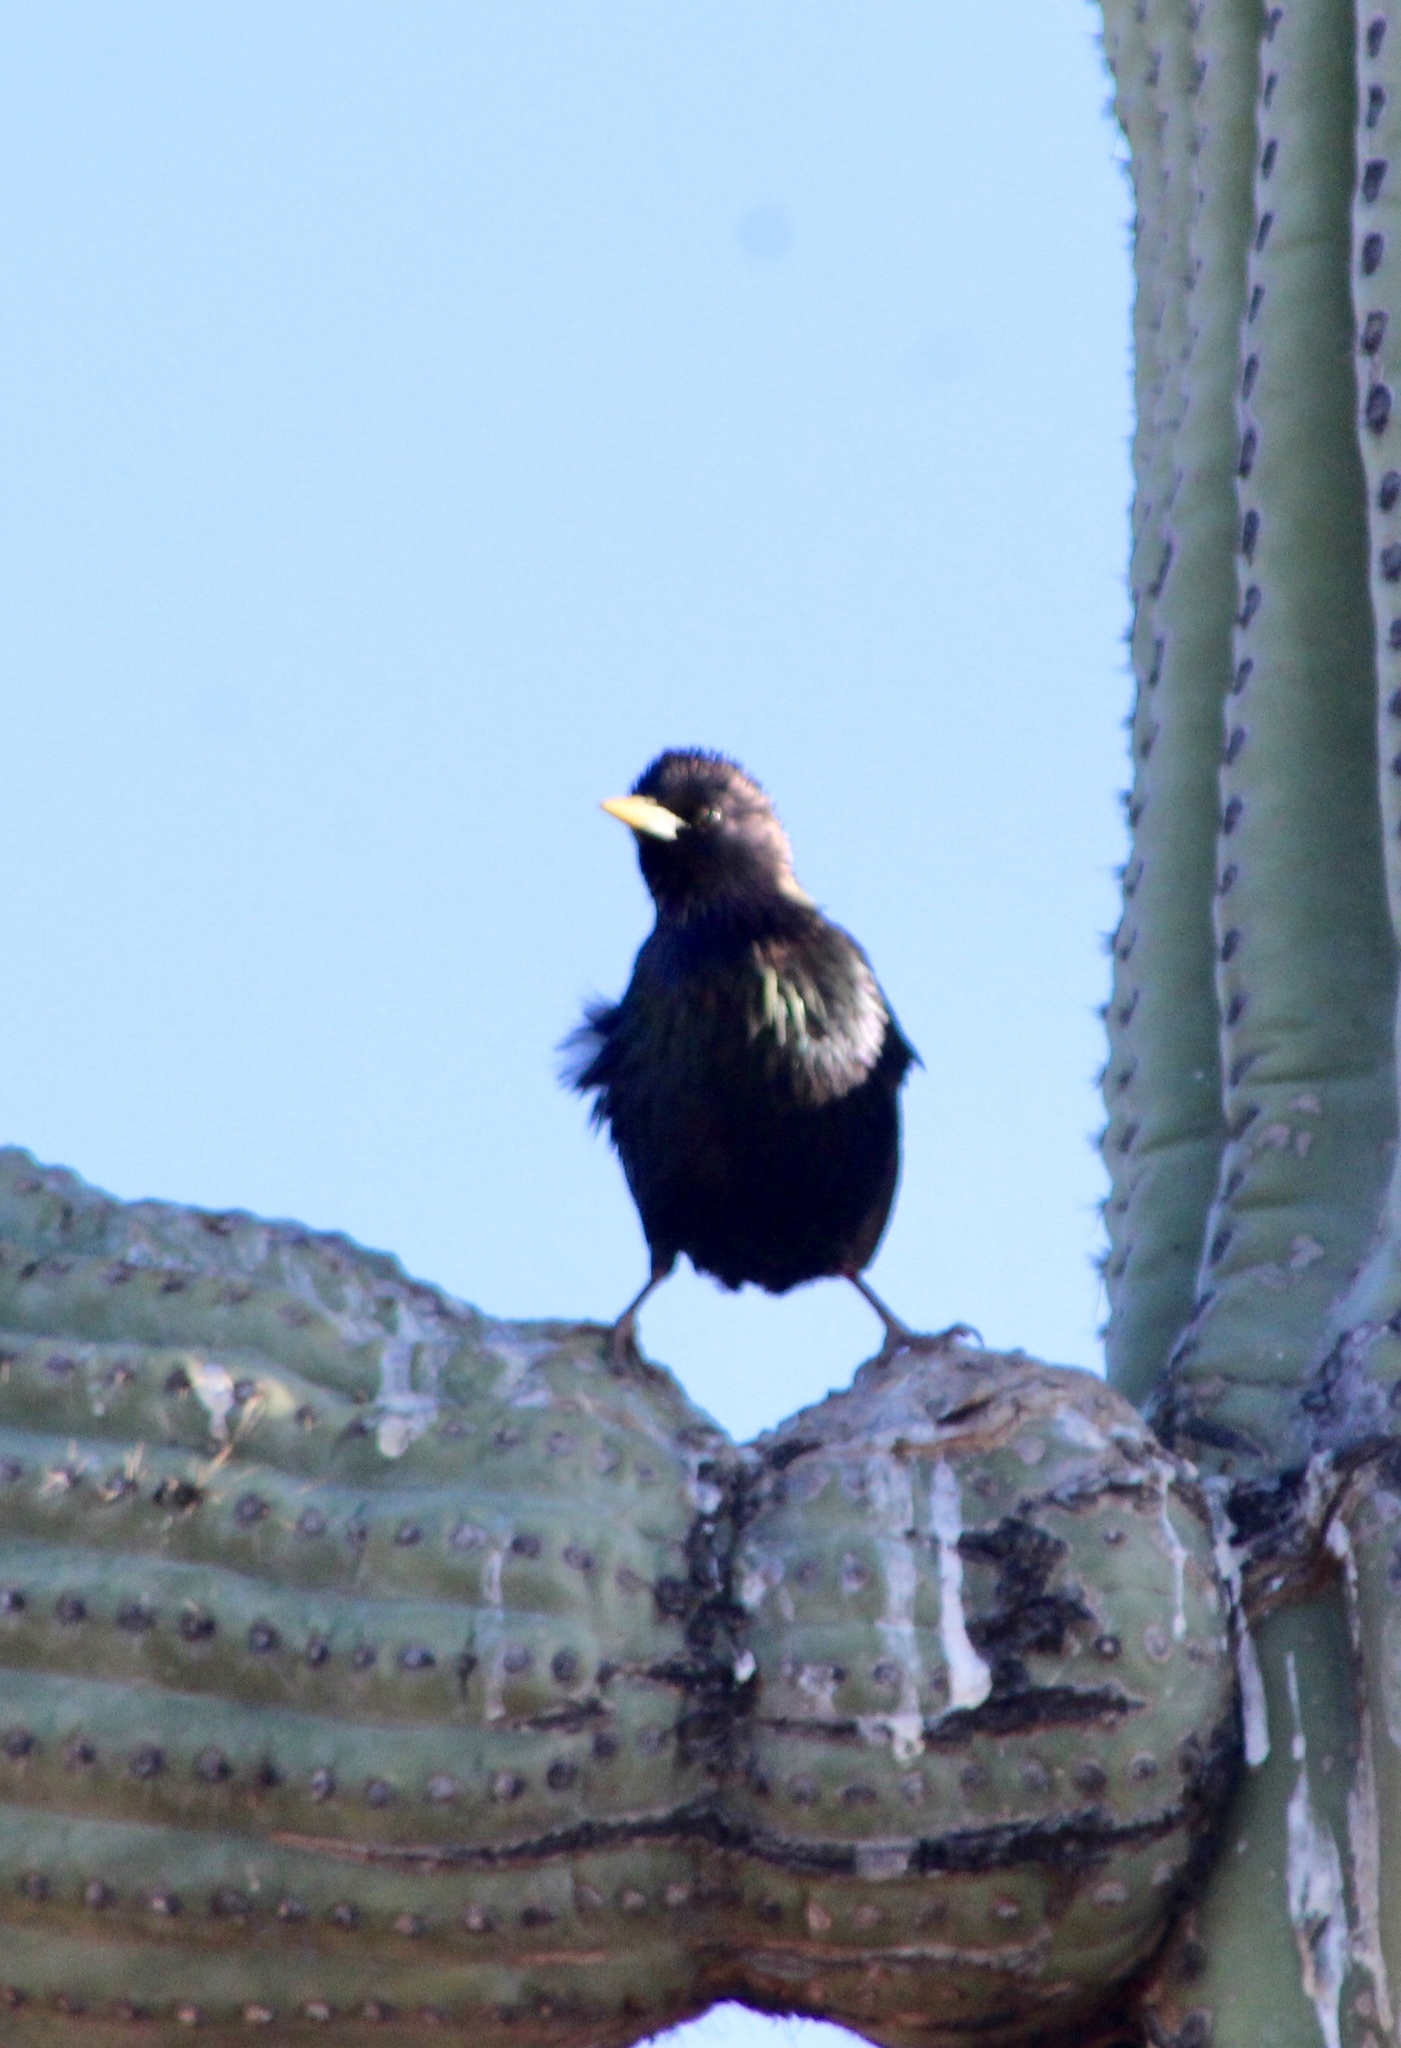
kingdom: Animalia
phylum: Chordata
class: Aves
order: Passeriformes
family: Sturnidae
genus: Sturnus
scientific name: Sturnus vulgaris
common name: Common starling
